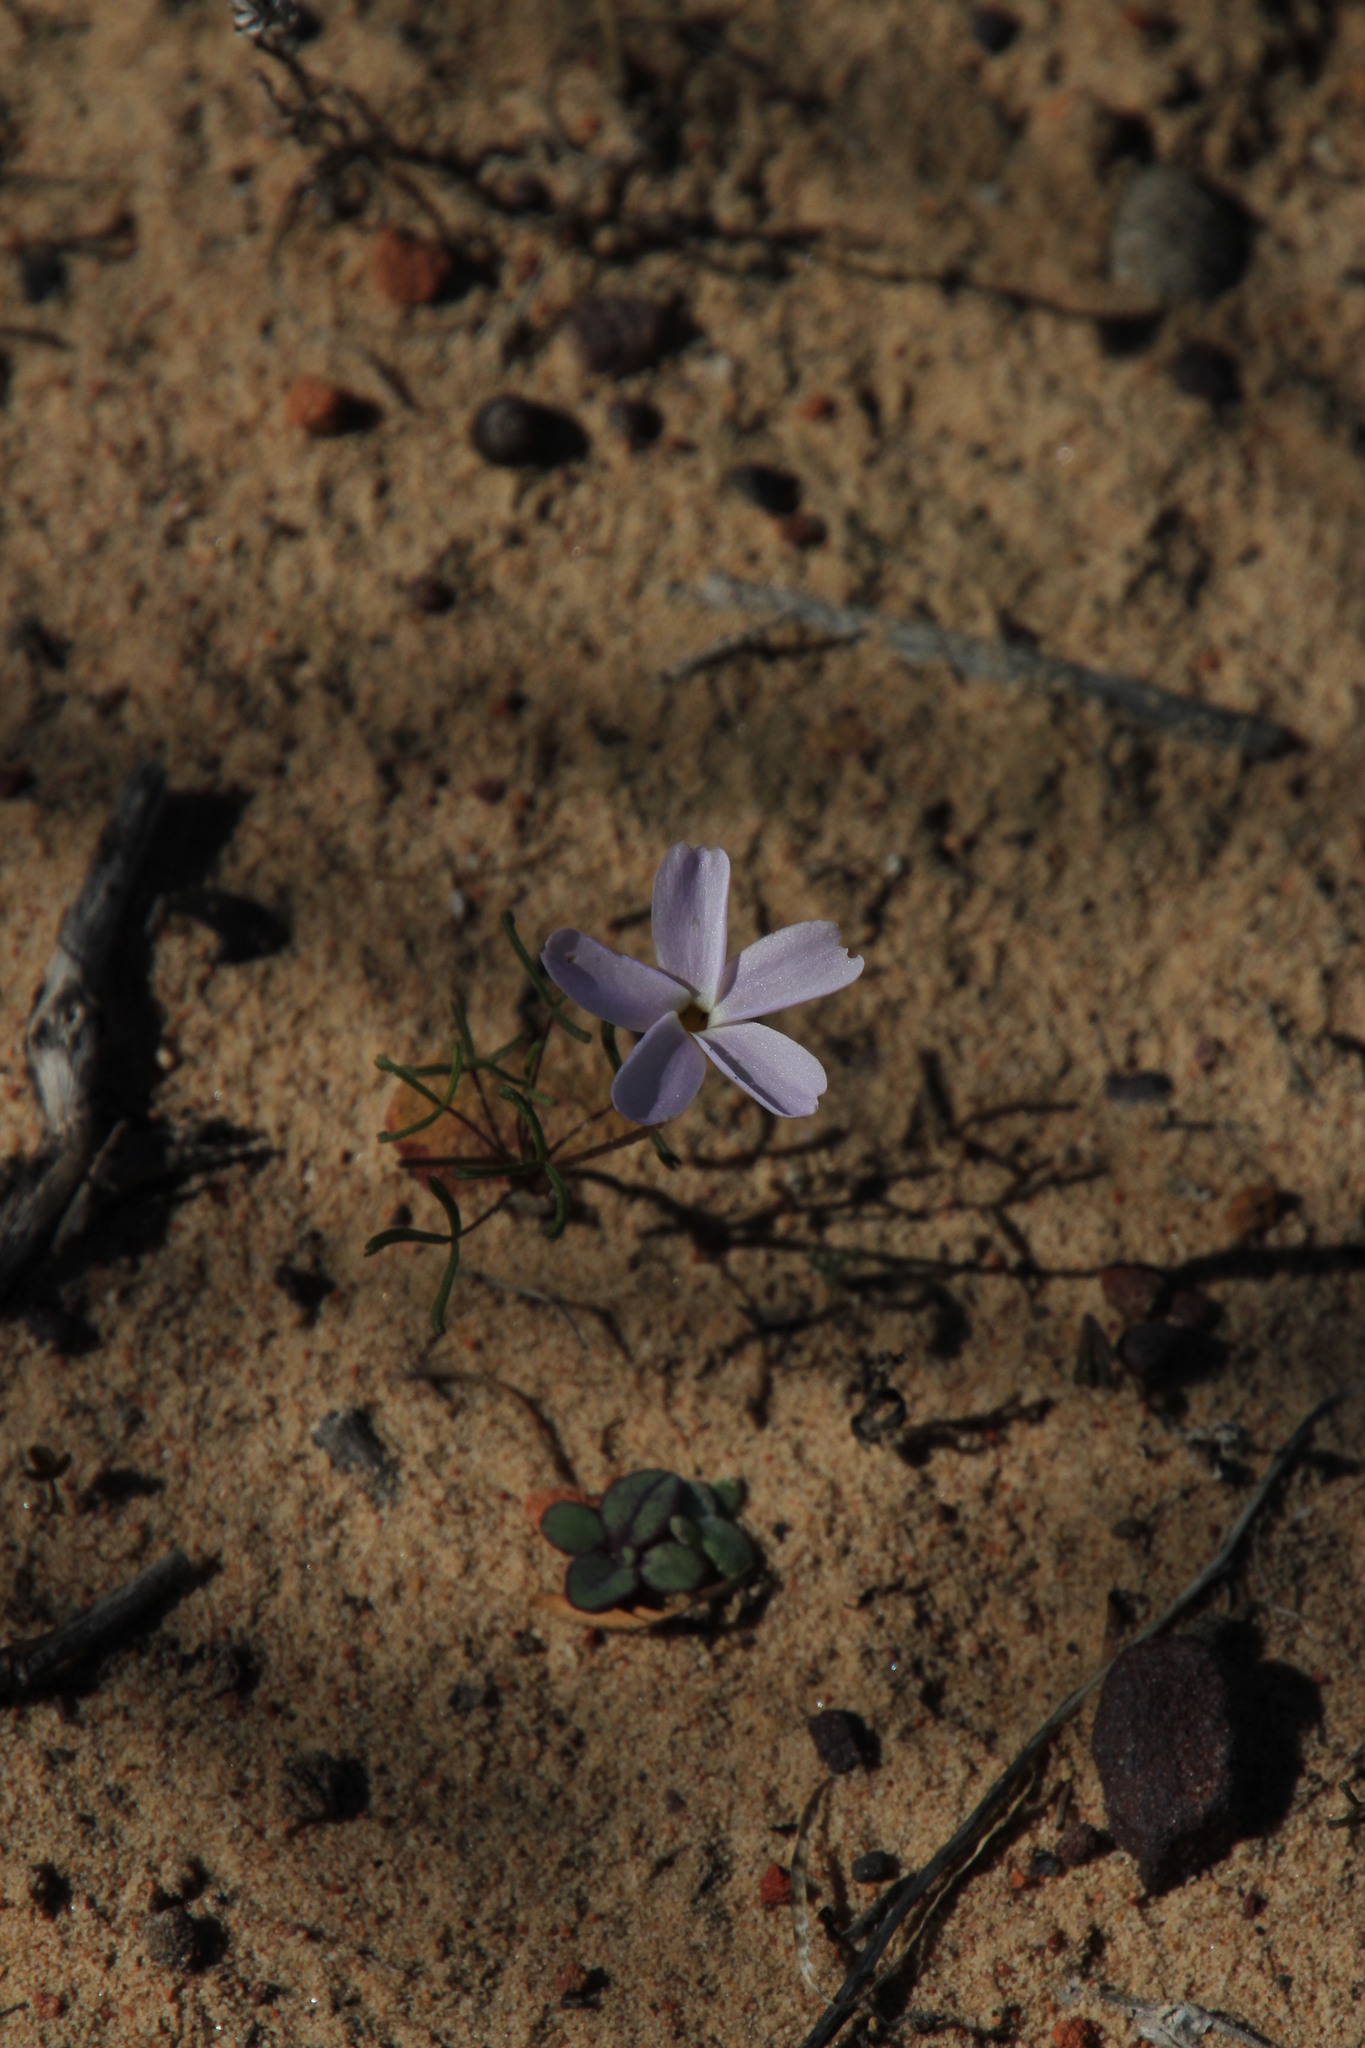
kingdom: Plantae
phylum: Tracheophyta
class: Magnoliopsida
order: Oxalidales
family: Oxalidaceae
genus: Oxalis
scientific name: Oxalis phloxidiflora
